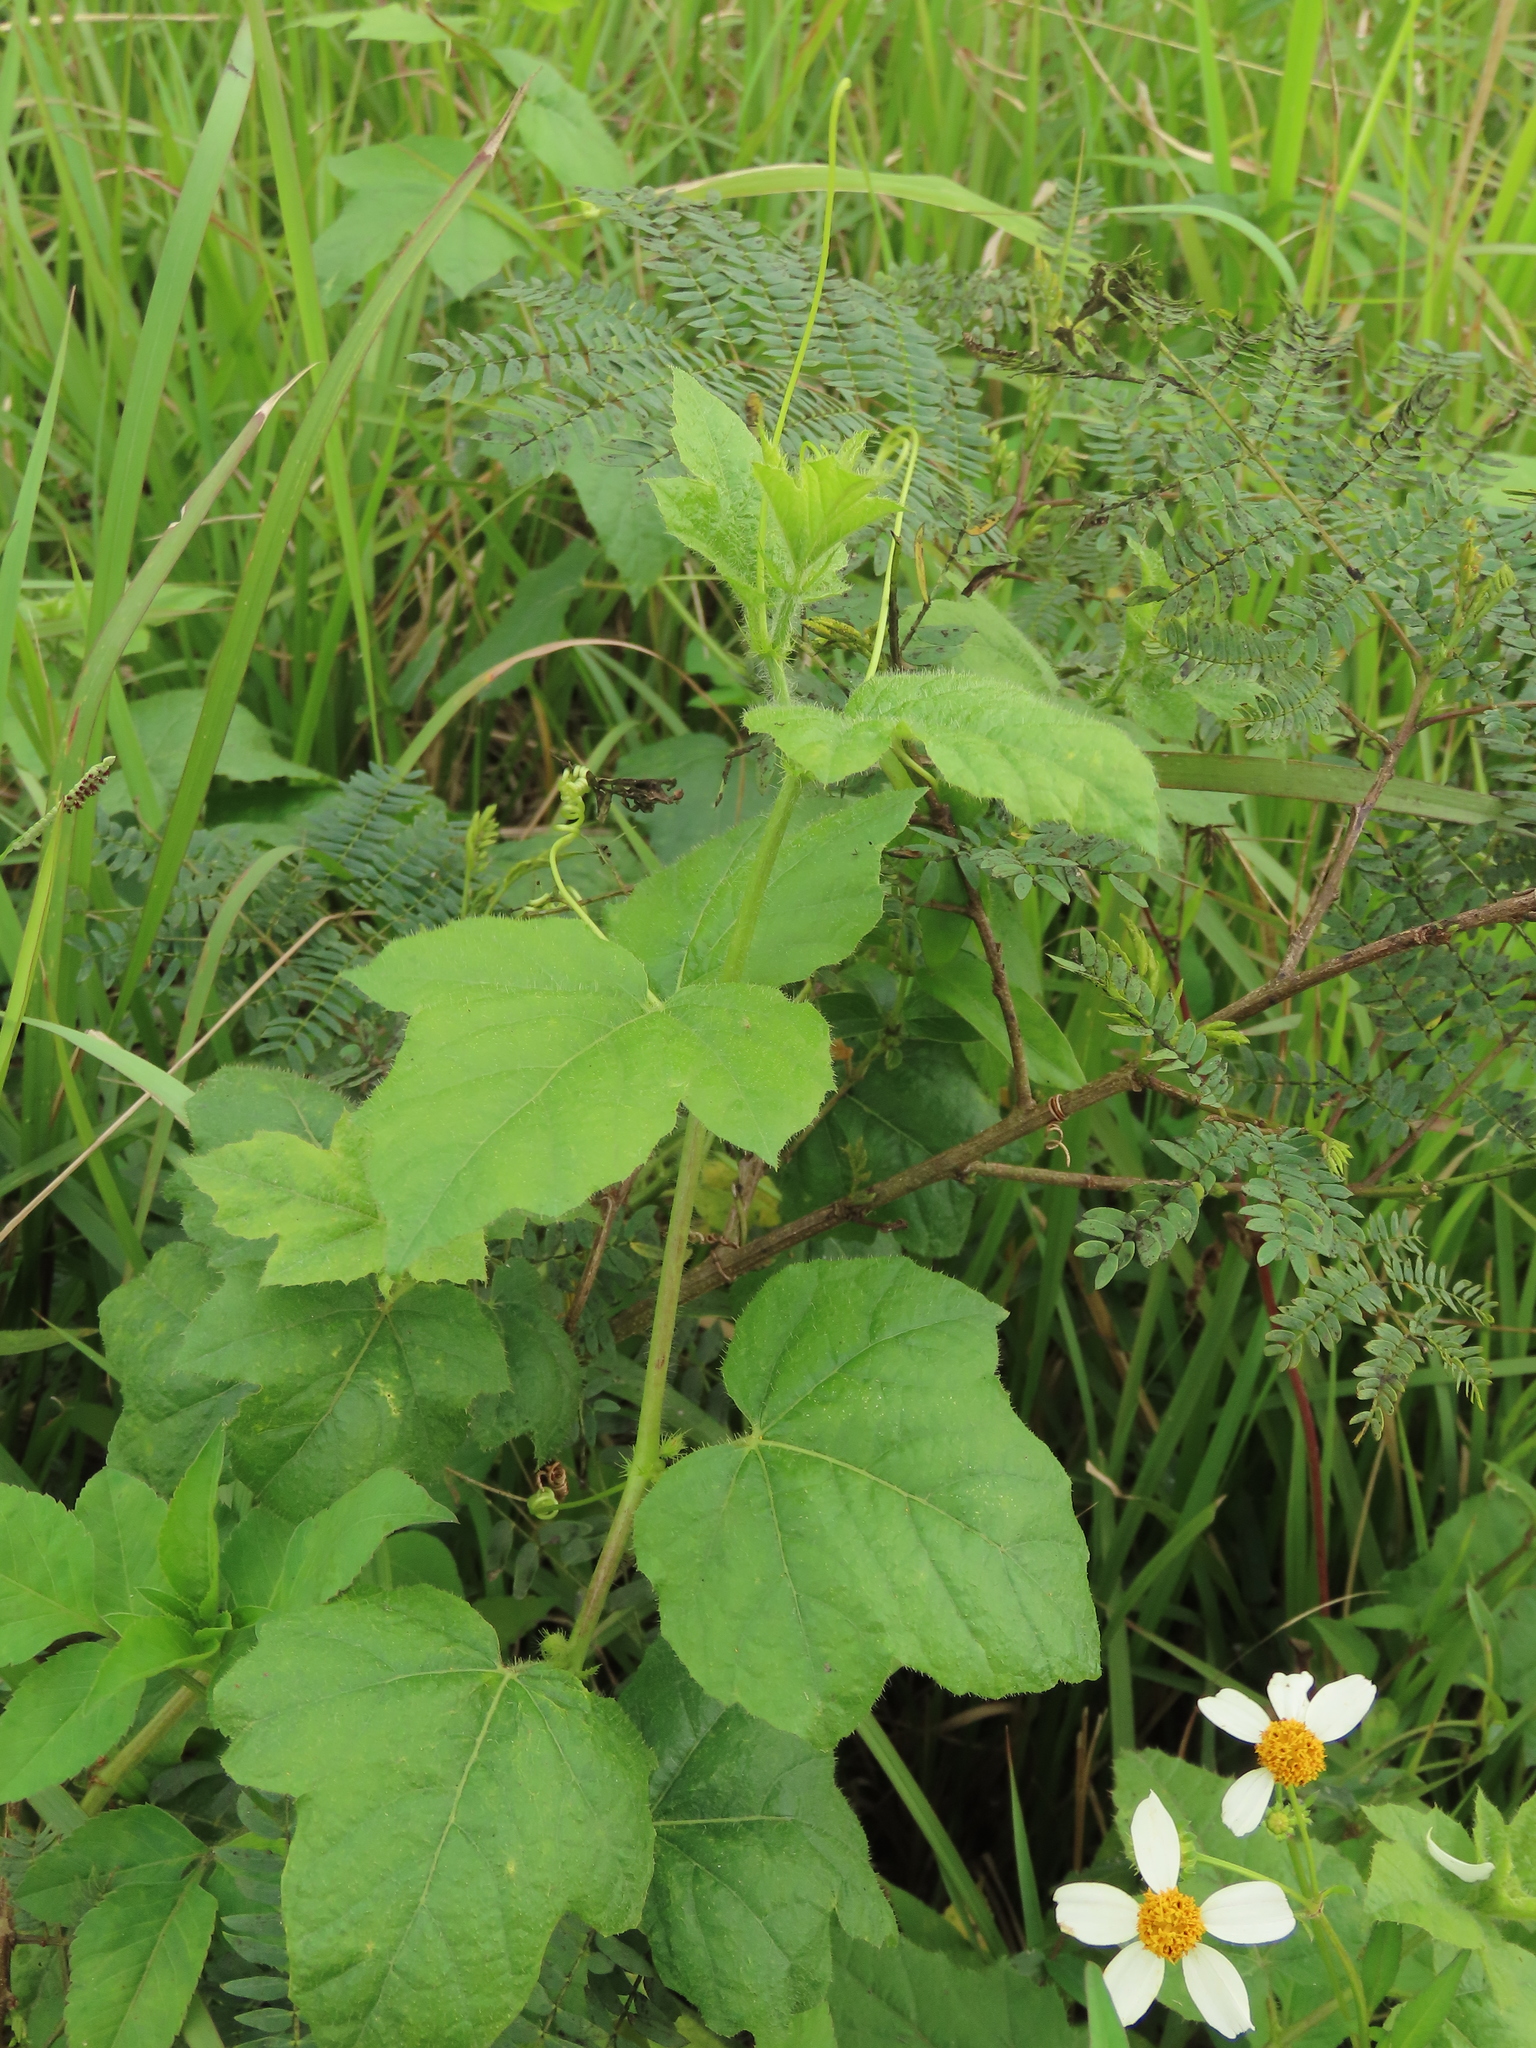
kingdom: Plantae
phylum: Tracheophyta
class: Magnoliopsida
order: Malpighiales
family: Passifloraceae
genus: Passiflora
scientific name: Passiflora vesicaria
